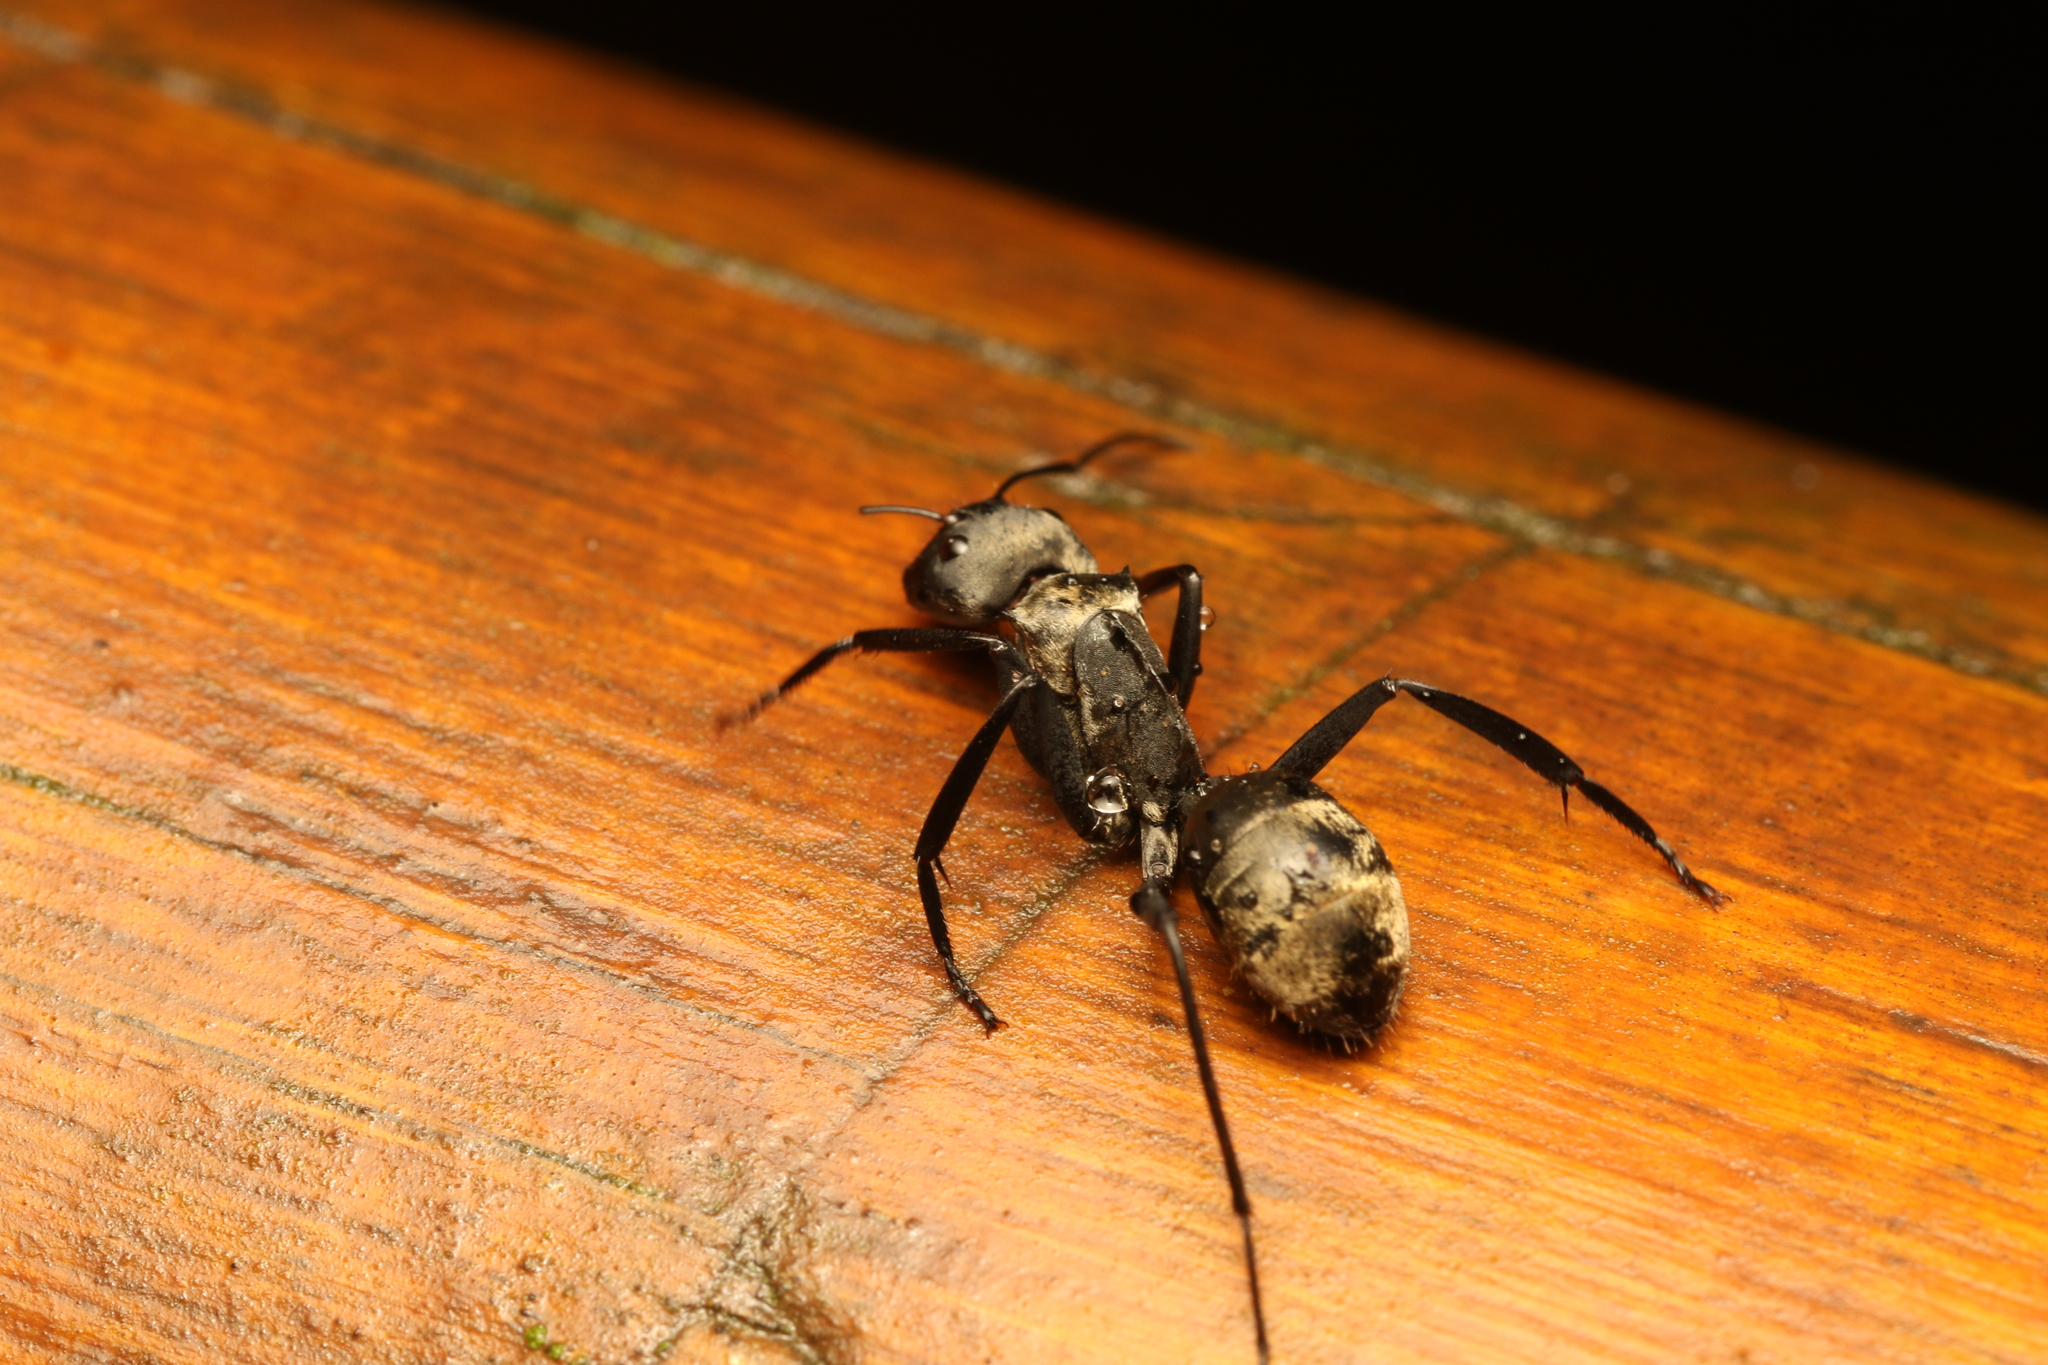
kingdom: Animalia
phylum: Arthropoda
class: Insecta
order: Hymenoptera
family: Formicidae
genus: Camponotus
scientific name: Camponotus sericeiventris
